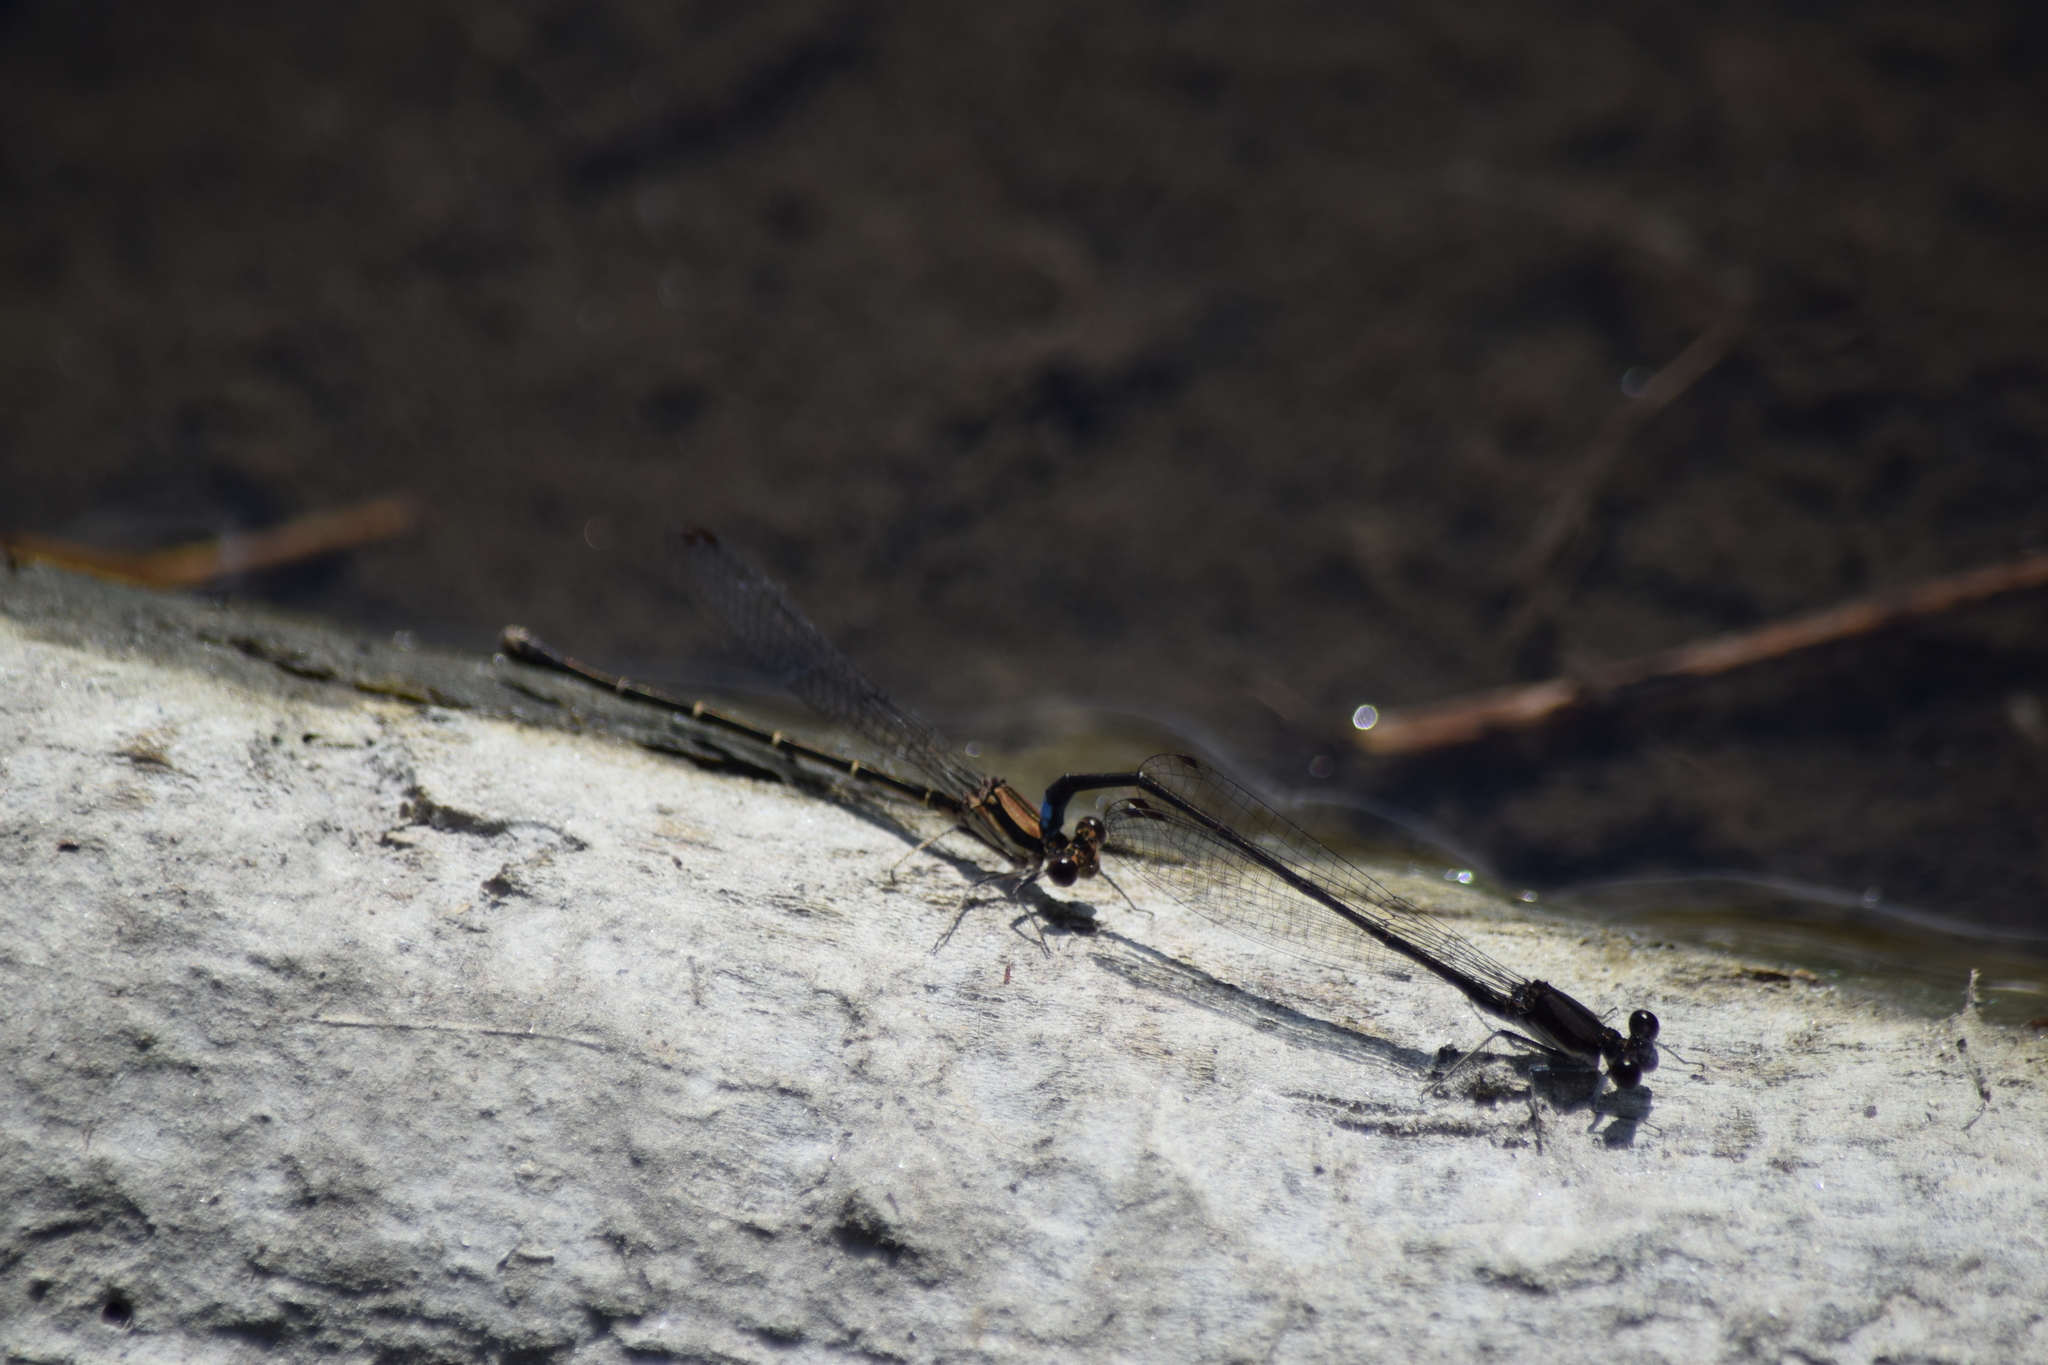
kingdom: Animalia
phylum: Arthropoda
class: Insecta
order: Odonata
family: Coenagrionidae
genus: Argia
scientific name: Argia tibialis
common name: Blue-tipped dancer
